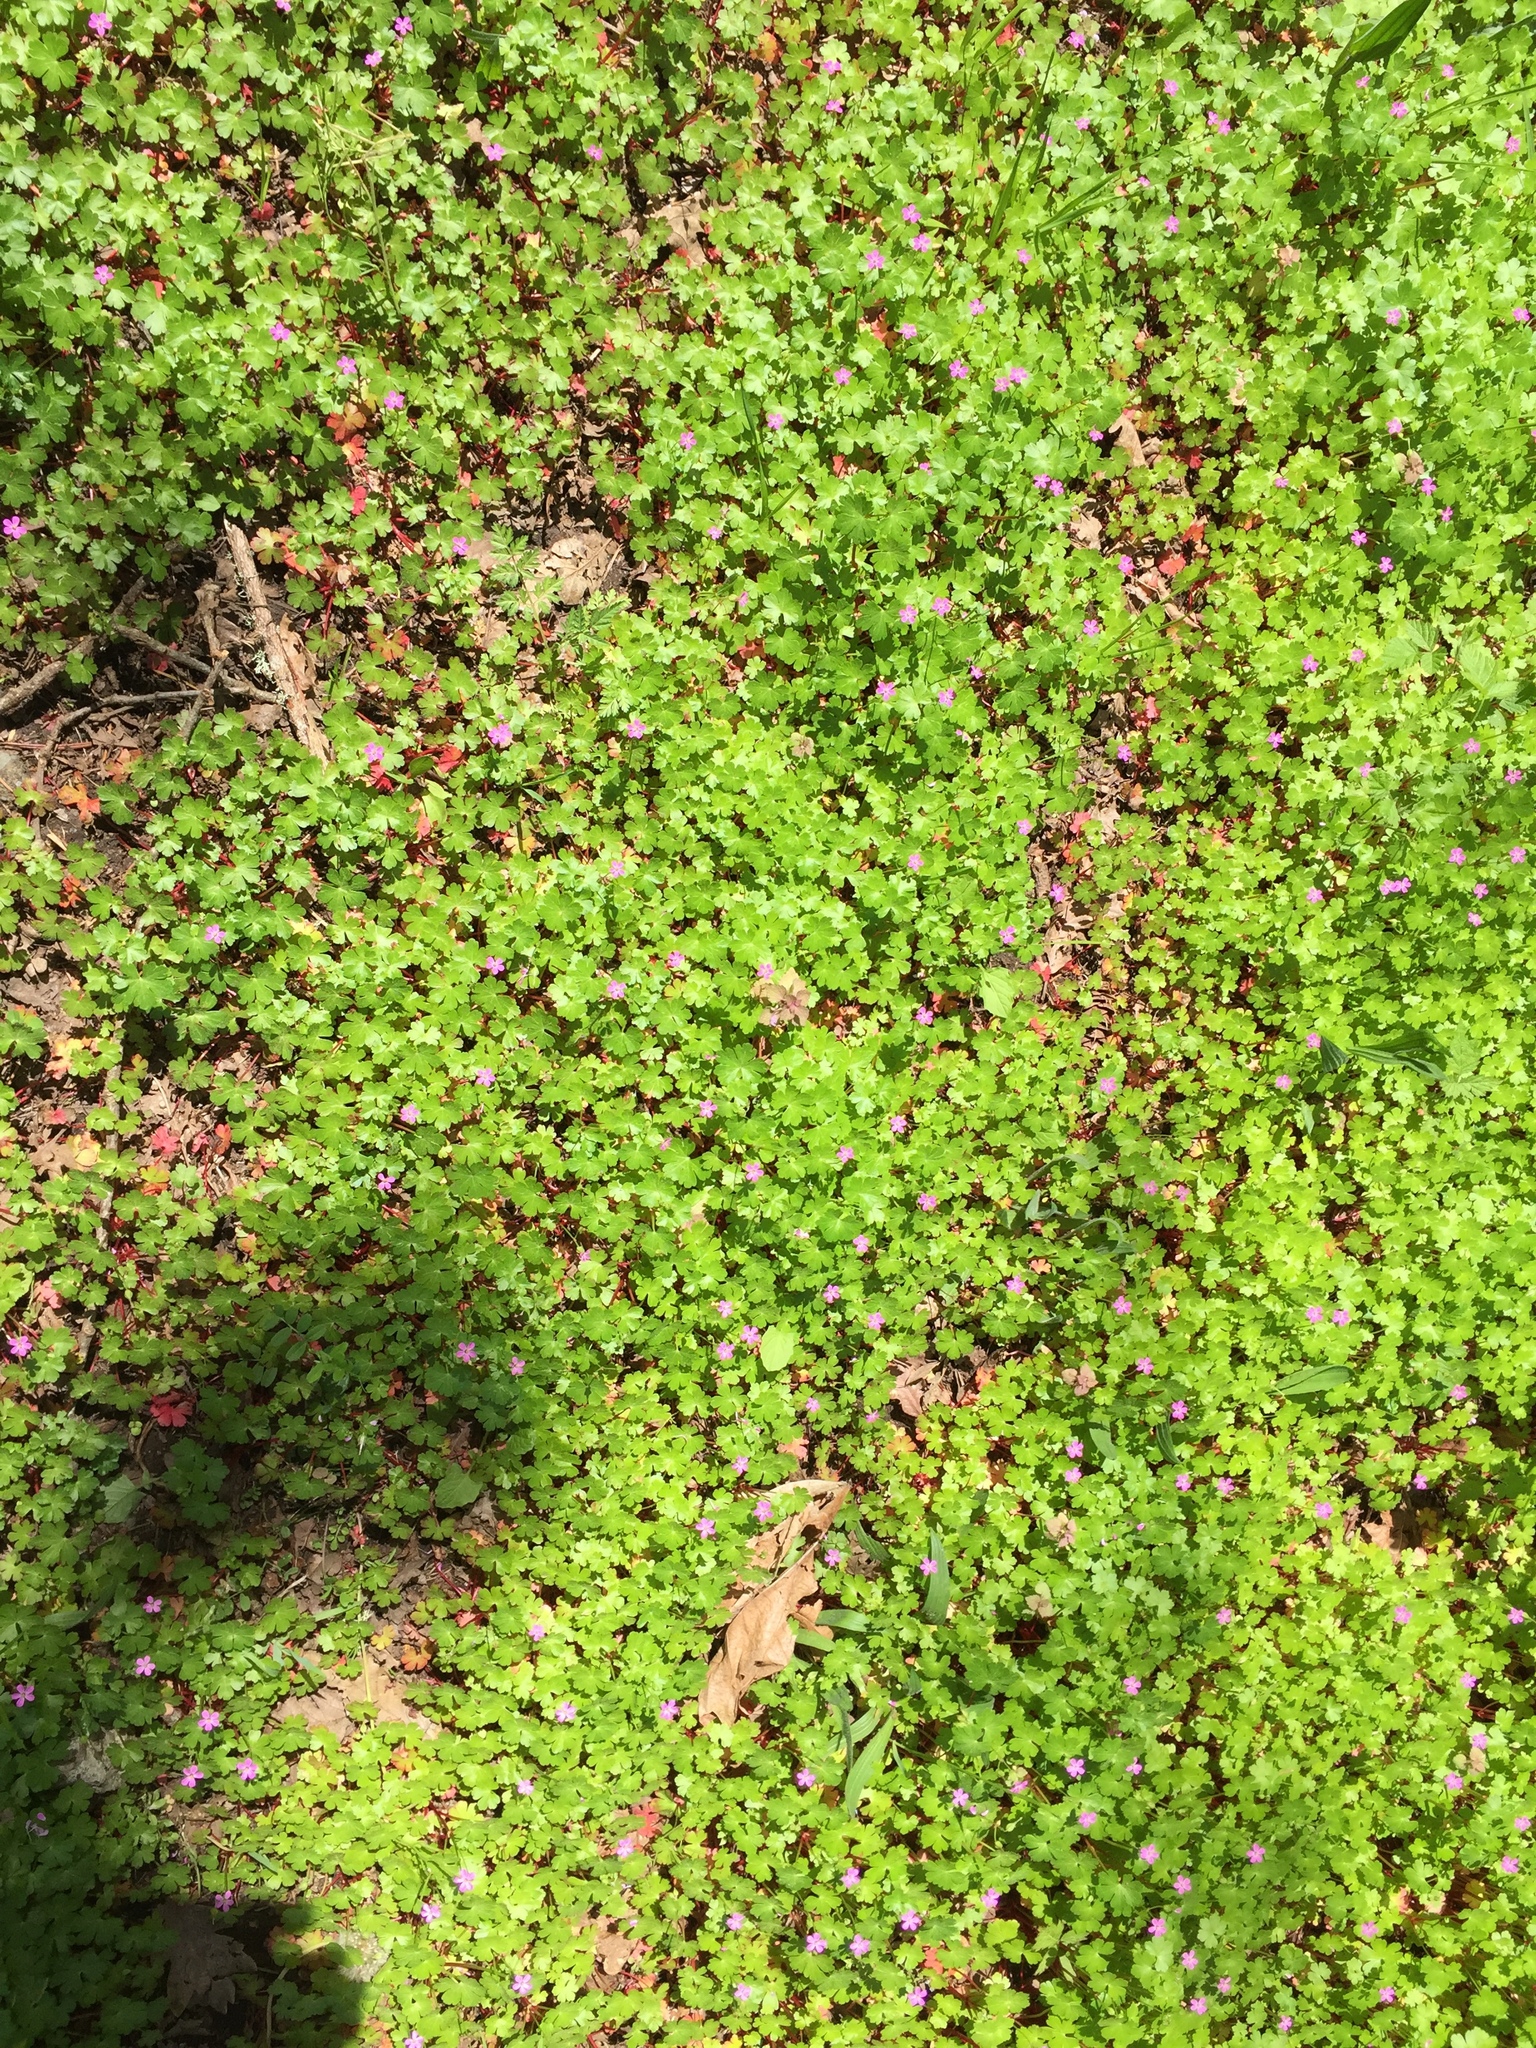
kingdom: Plantae
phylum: Tracheophyta
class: Magnoliopsida
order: Geraniales
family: Geraniaceae
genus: Geranium
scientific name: Geranium lucidum
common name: Shining crane's-bill
